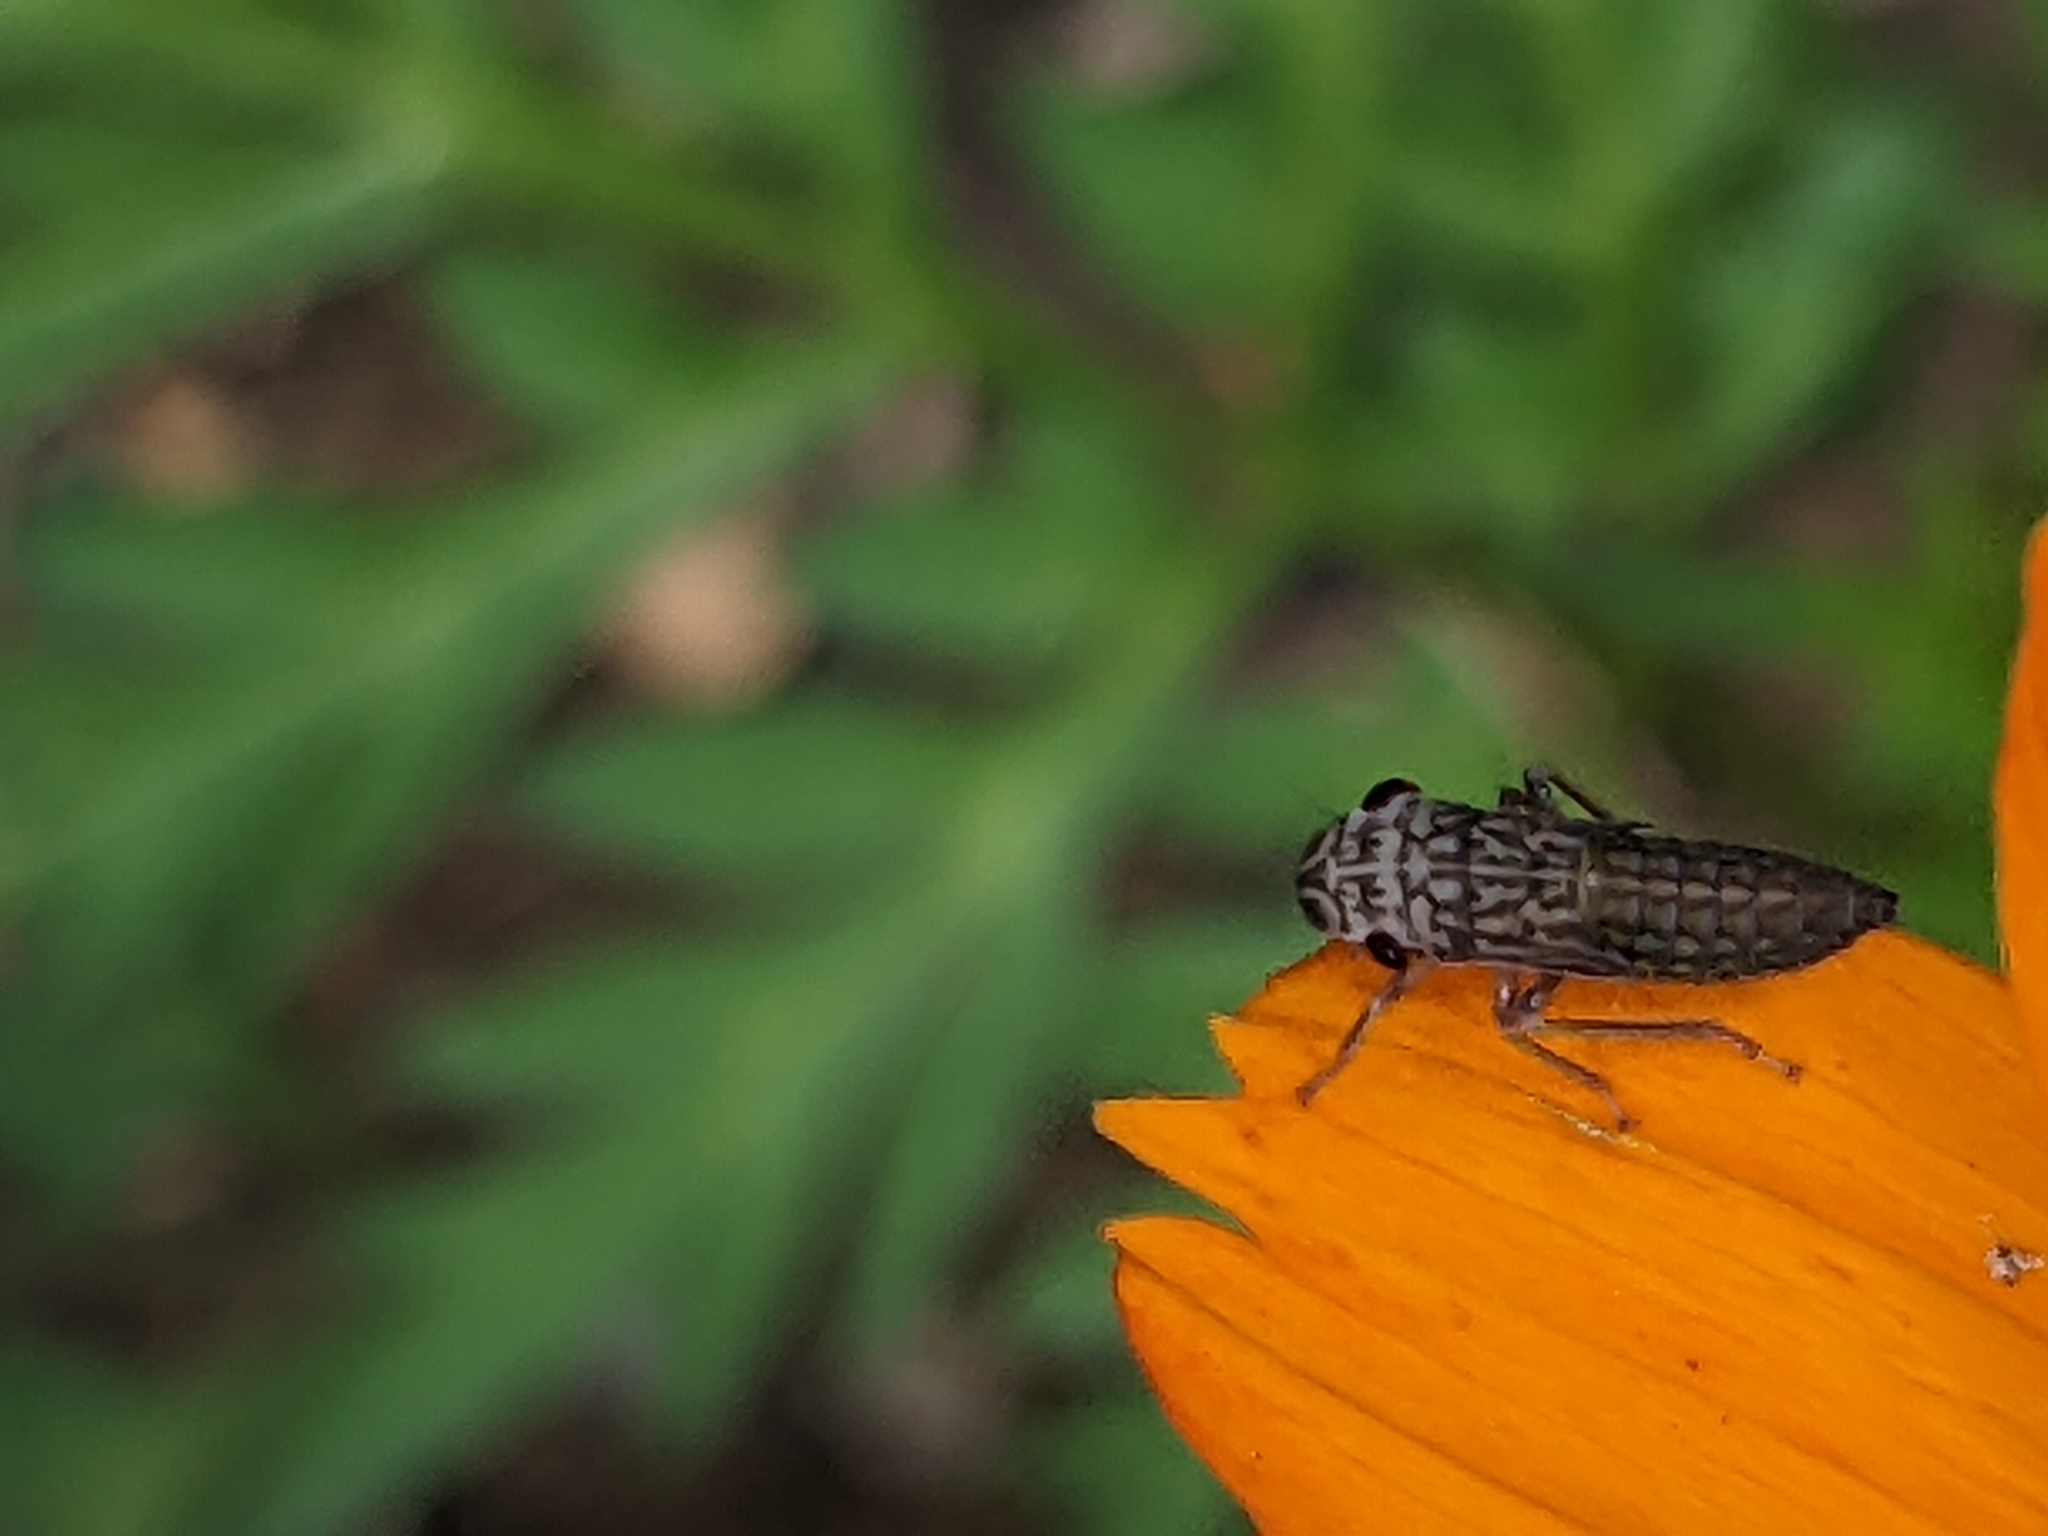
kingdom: Animalia
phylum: Arthropoda
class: Insecta
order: Hemiptera
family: Cicadellidae
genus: Oncometopia
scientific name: Oncometopia orbona
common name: Broad-headed sharpshooter
